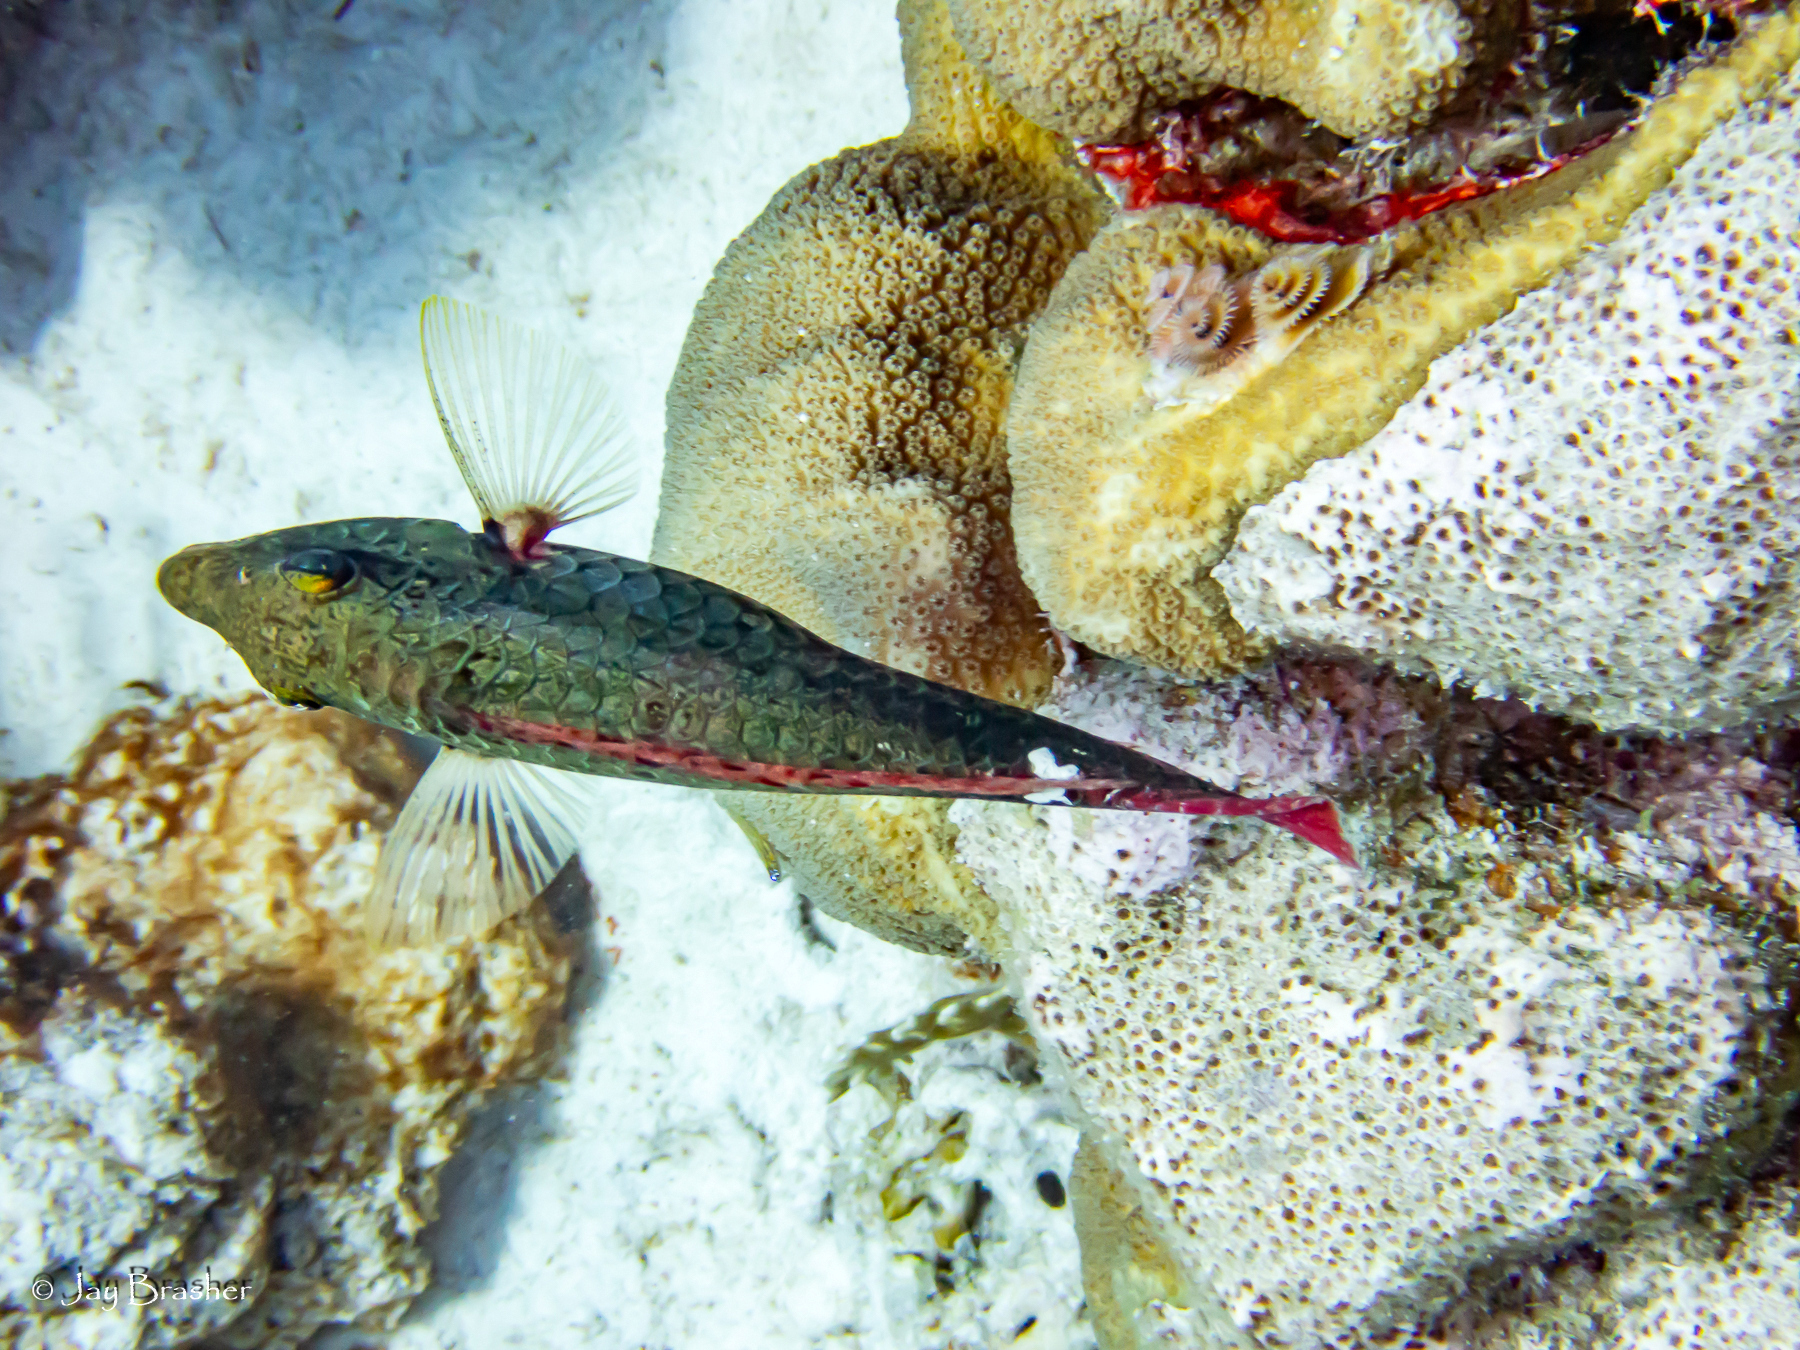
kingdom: Animalia
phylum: Chordata
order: Perciformes
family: Scaridae
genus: Sparisoma
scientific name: Sparisoma aurofrenatum
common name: Redband parrotfish
